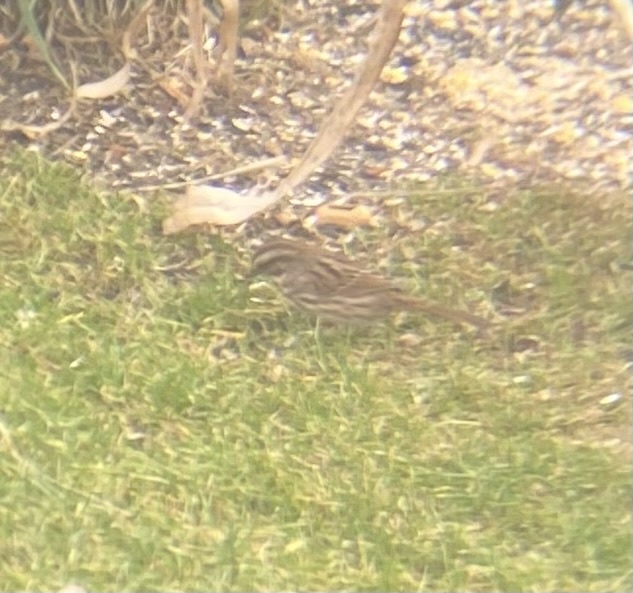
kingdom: Animalia
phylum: Chordata
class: Aves
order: Passeriformes
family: Passerellidae
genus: Melospiza
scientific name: Melospiza melodia
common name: Song sparrow
